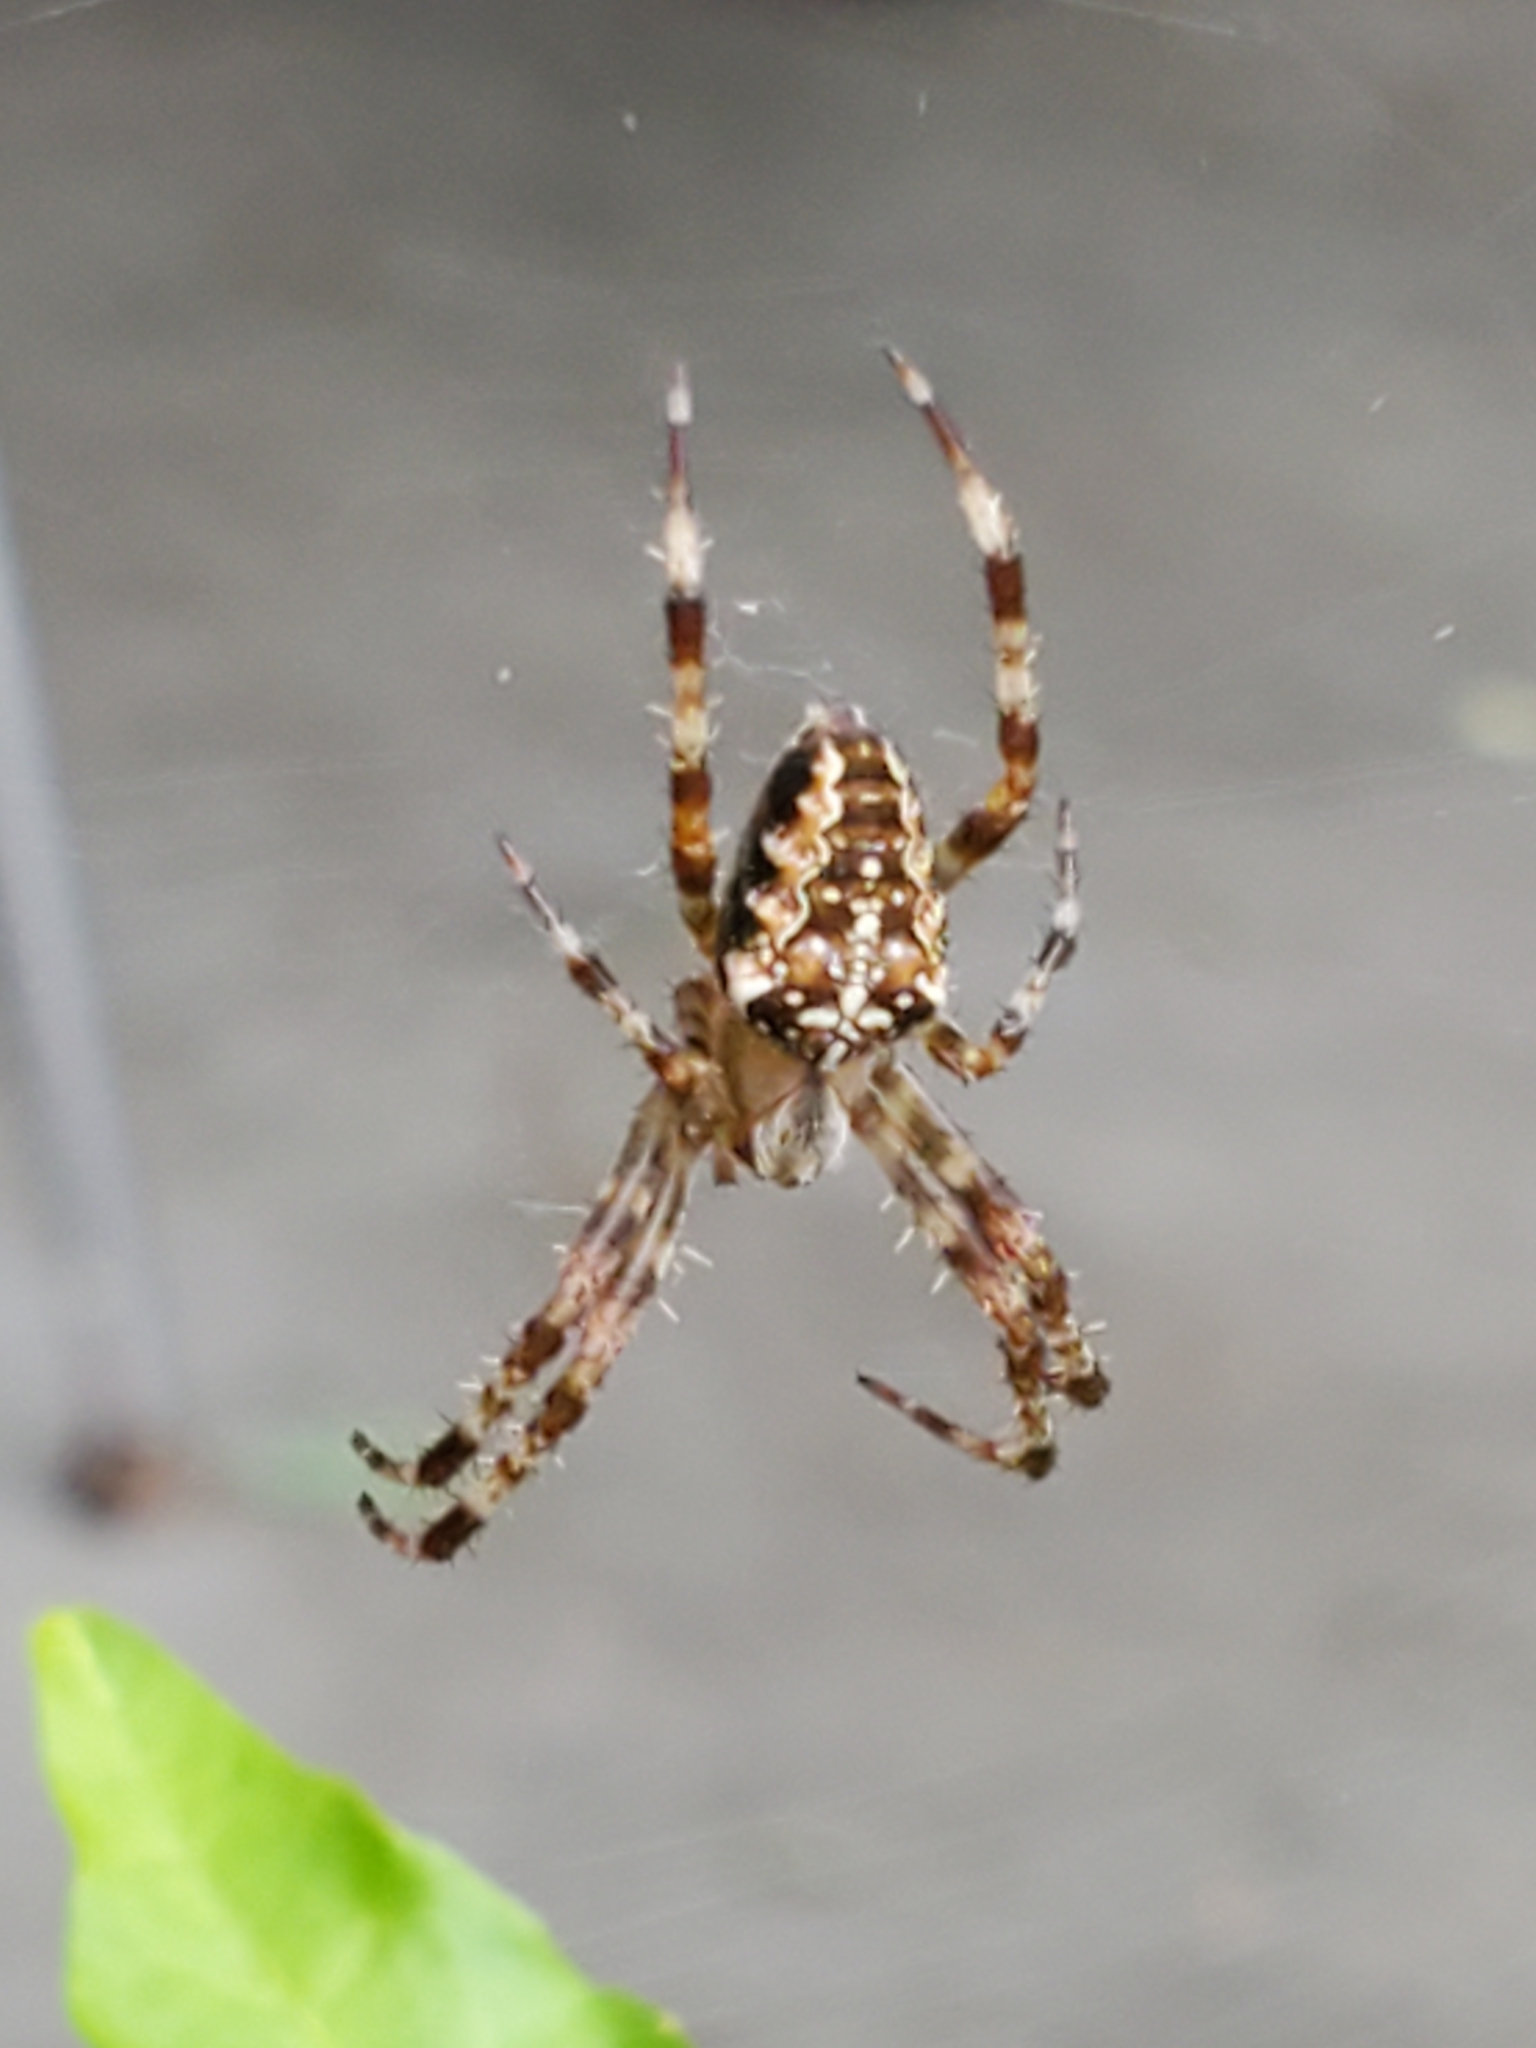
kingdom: Animalia
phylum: Arthropoda
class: Arachnida
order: Araneae
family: Araneidae
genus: Araneus
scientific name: Araneus diadematus
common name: Cross orbweaver
